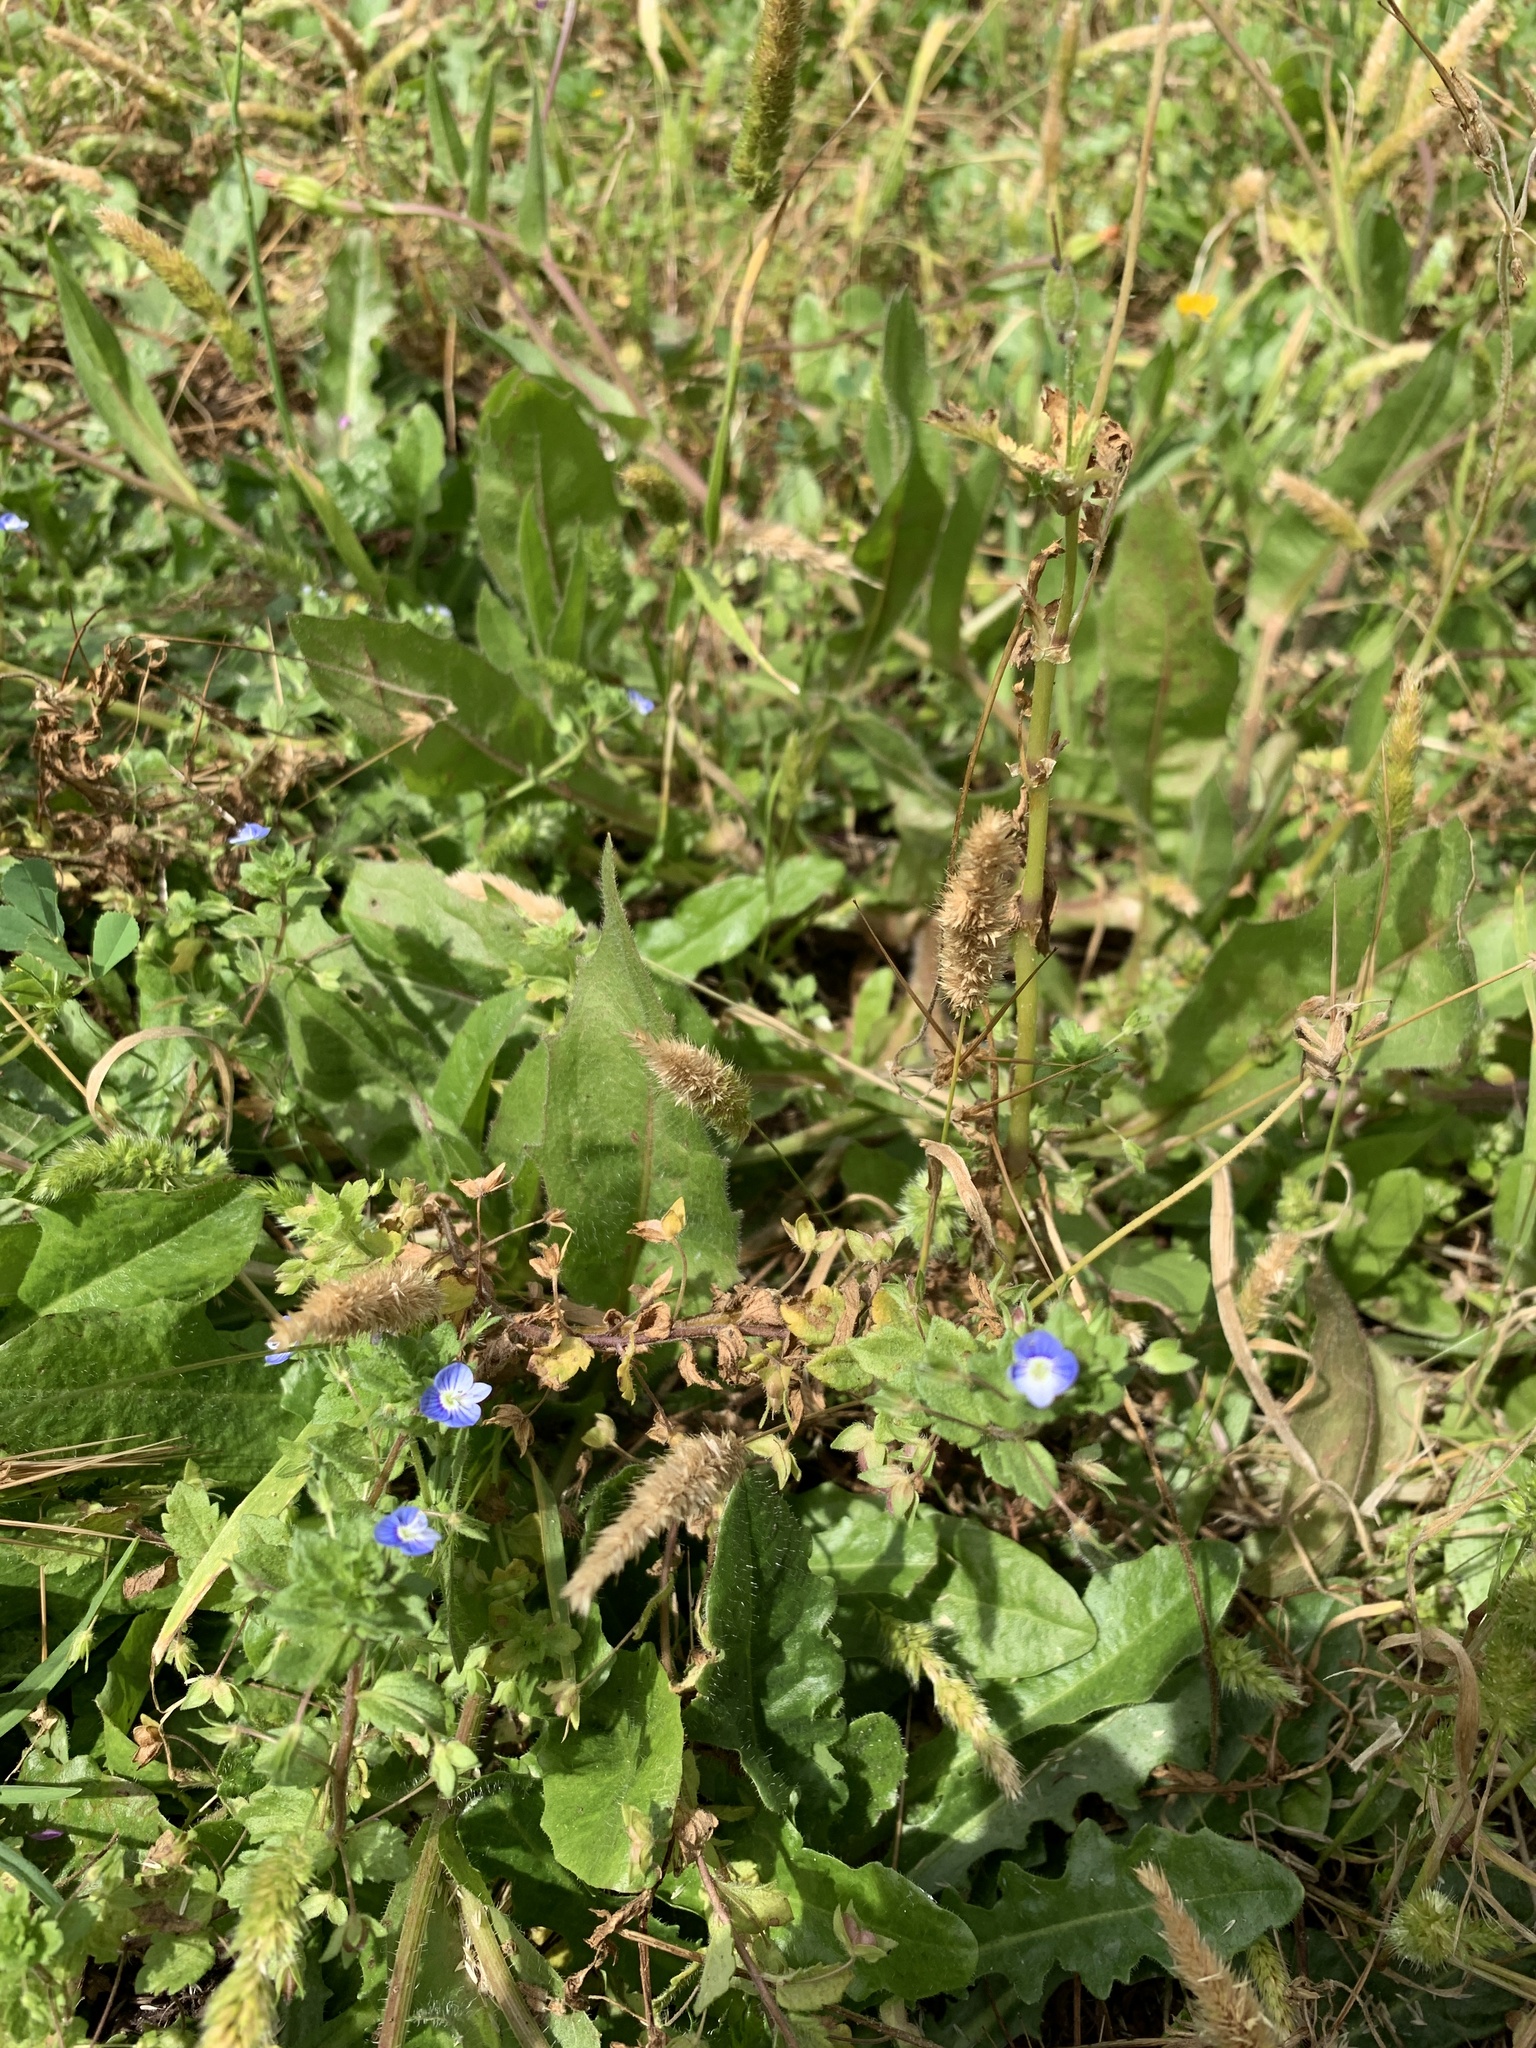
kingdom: Plantae
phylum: Tracheophyta
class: Magnoliopsida
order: Lamiales
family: Plantaginaceae
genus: Veronica
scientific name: Veronica persica
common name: Common field-speedwell
